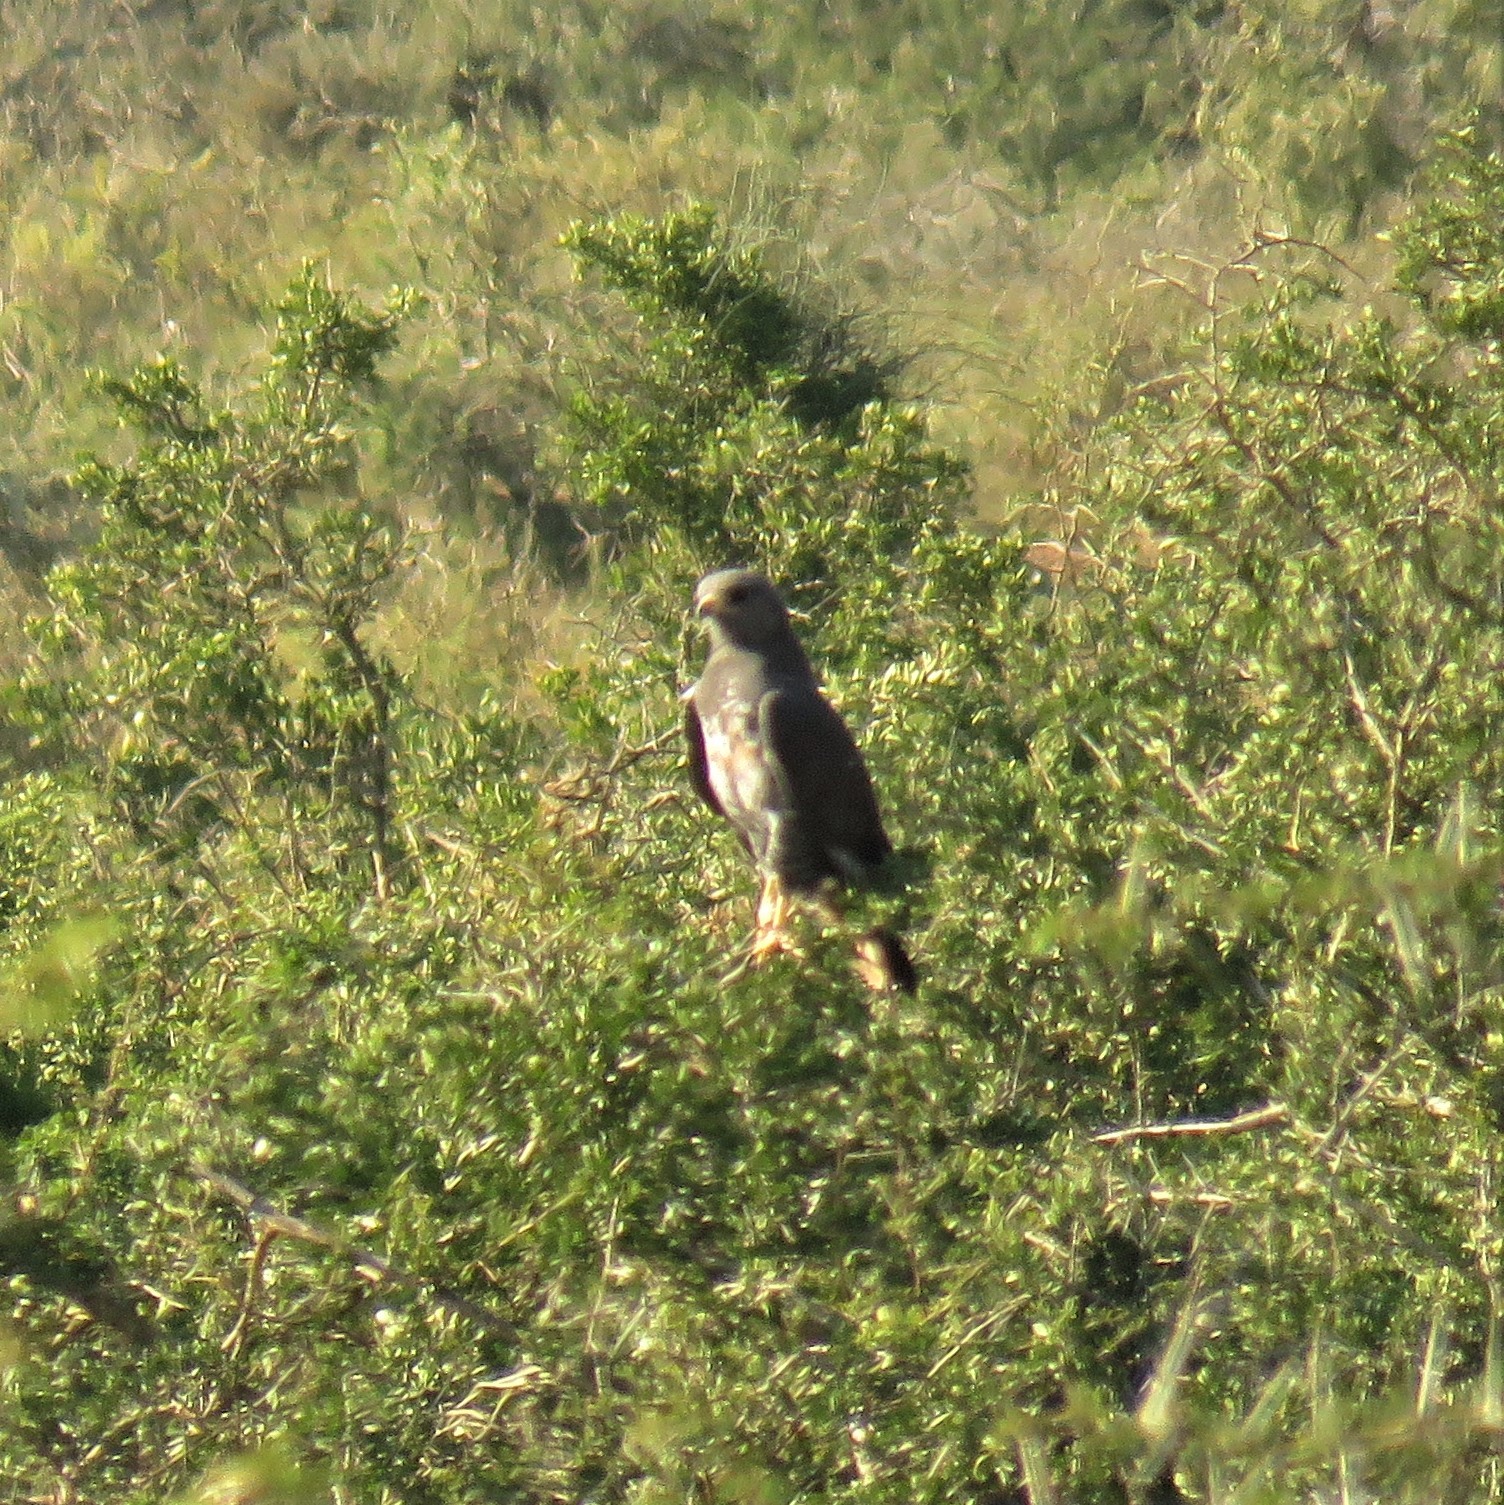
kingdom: Animalia
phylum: Chordata
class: Aves
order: Accipitriformes
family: Accipitridae
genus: Buteo
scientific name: Buteo rufofuscus
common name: Jackal buzzard
